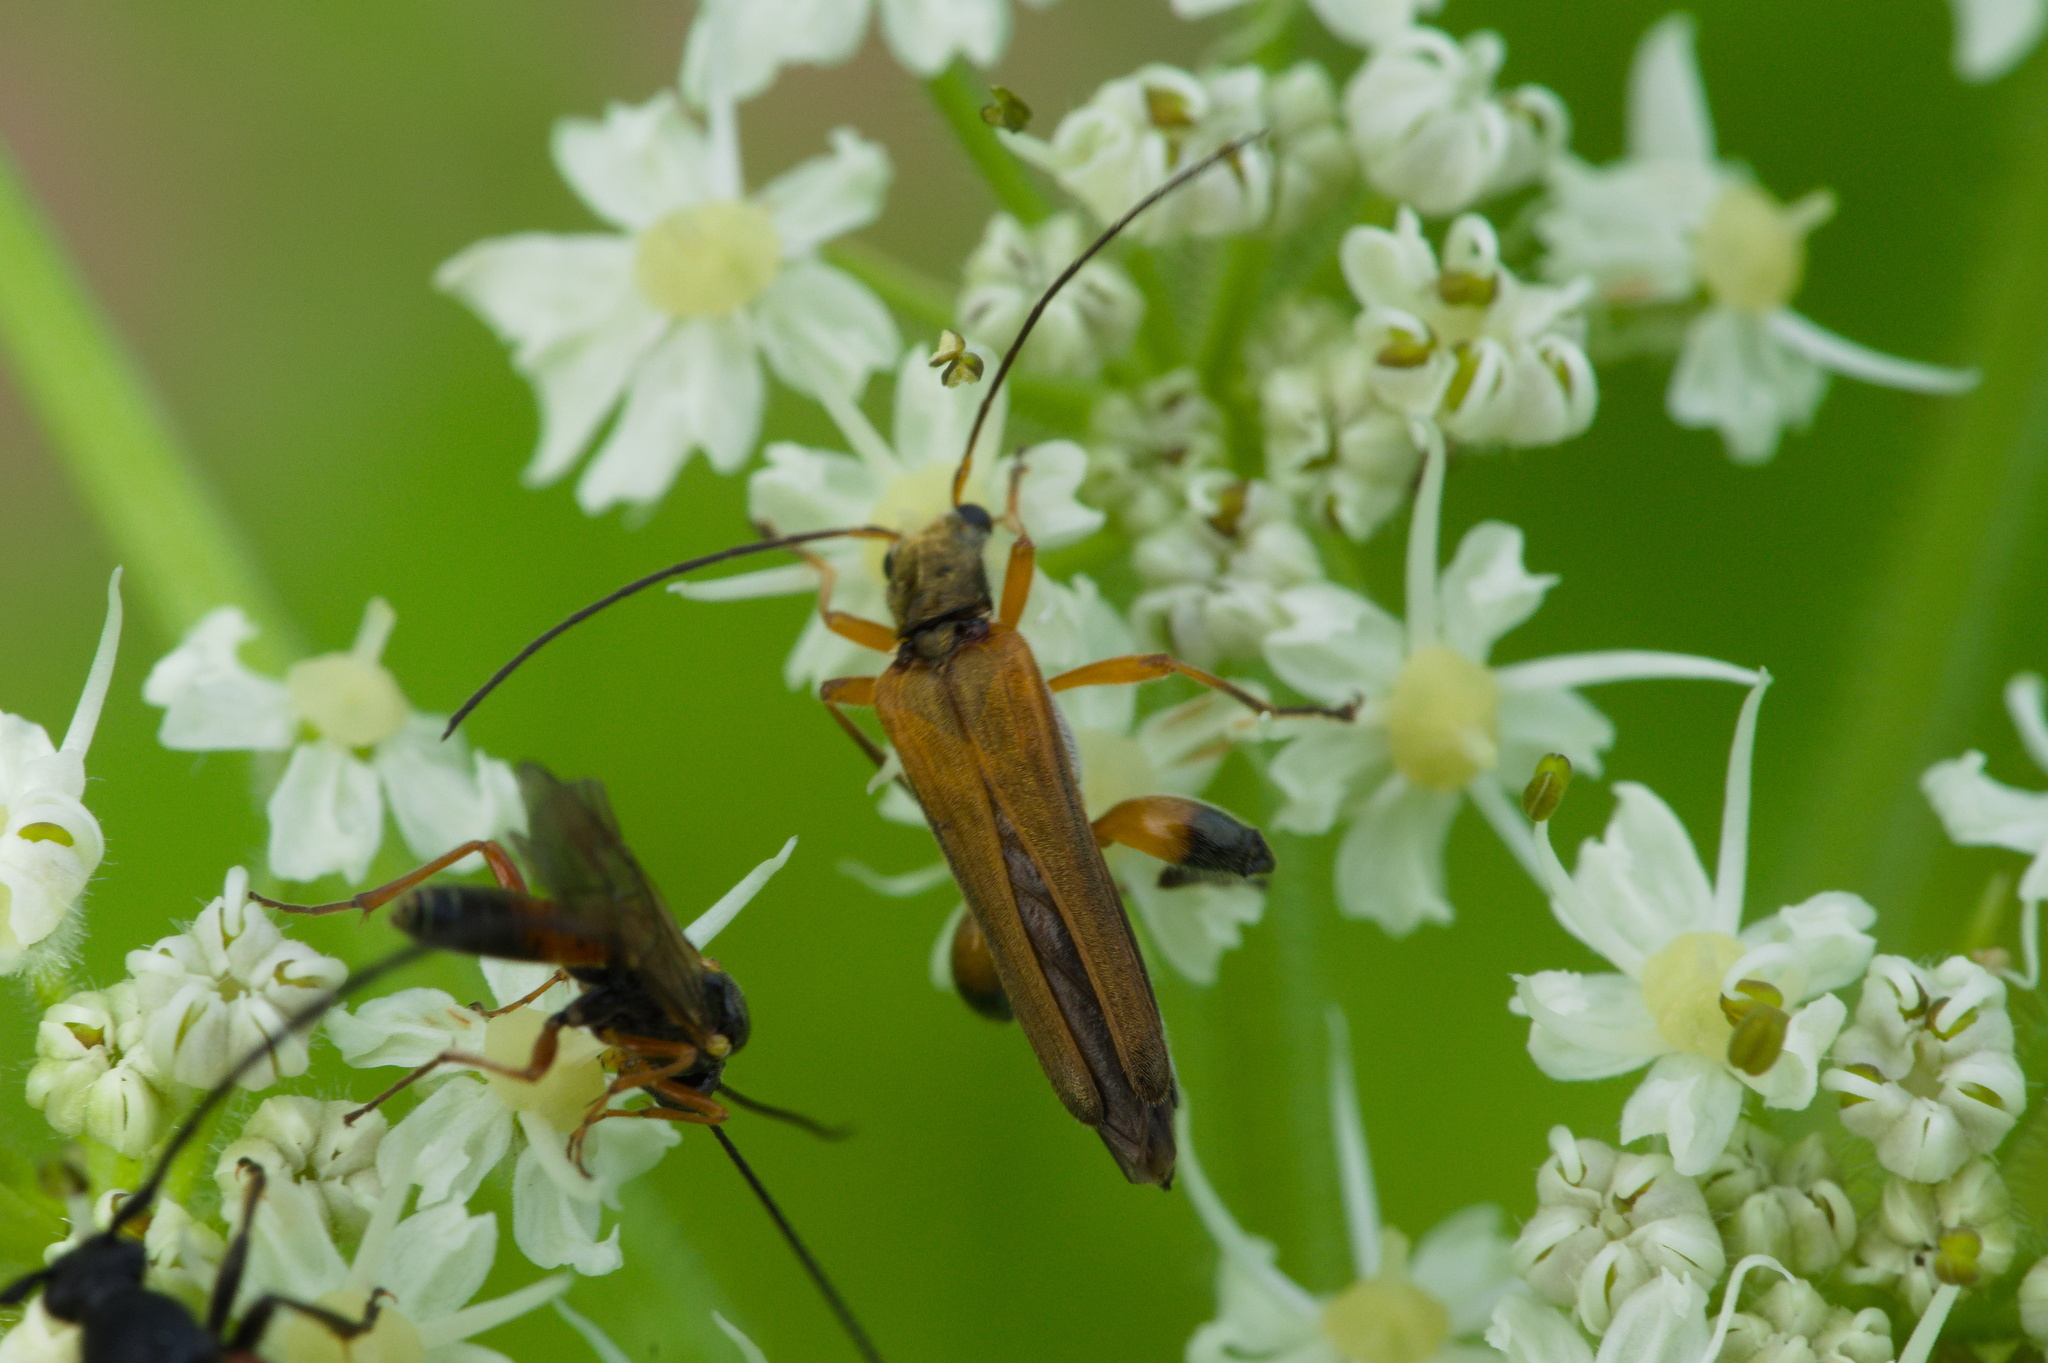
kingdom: Animalia
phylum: Arthropoda
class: Insecta
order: Coleoptera
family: Oedemeridae
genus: Oedemera
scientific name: Oedemera podagrariae
